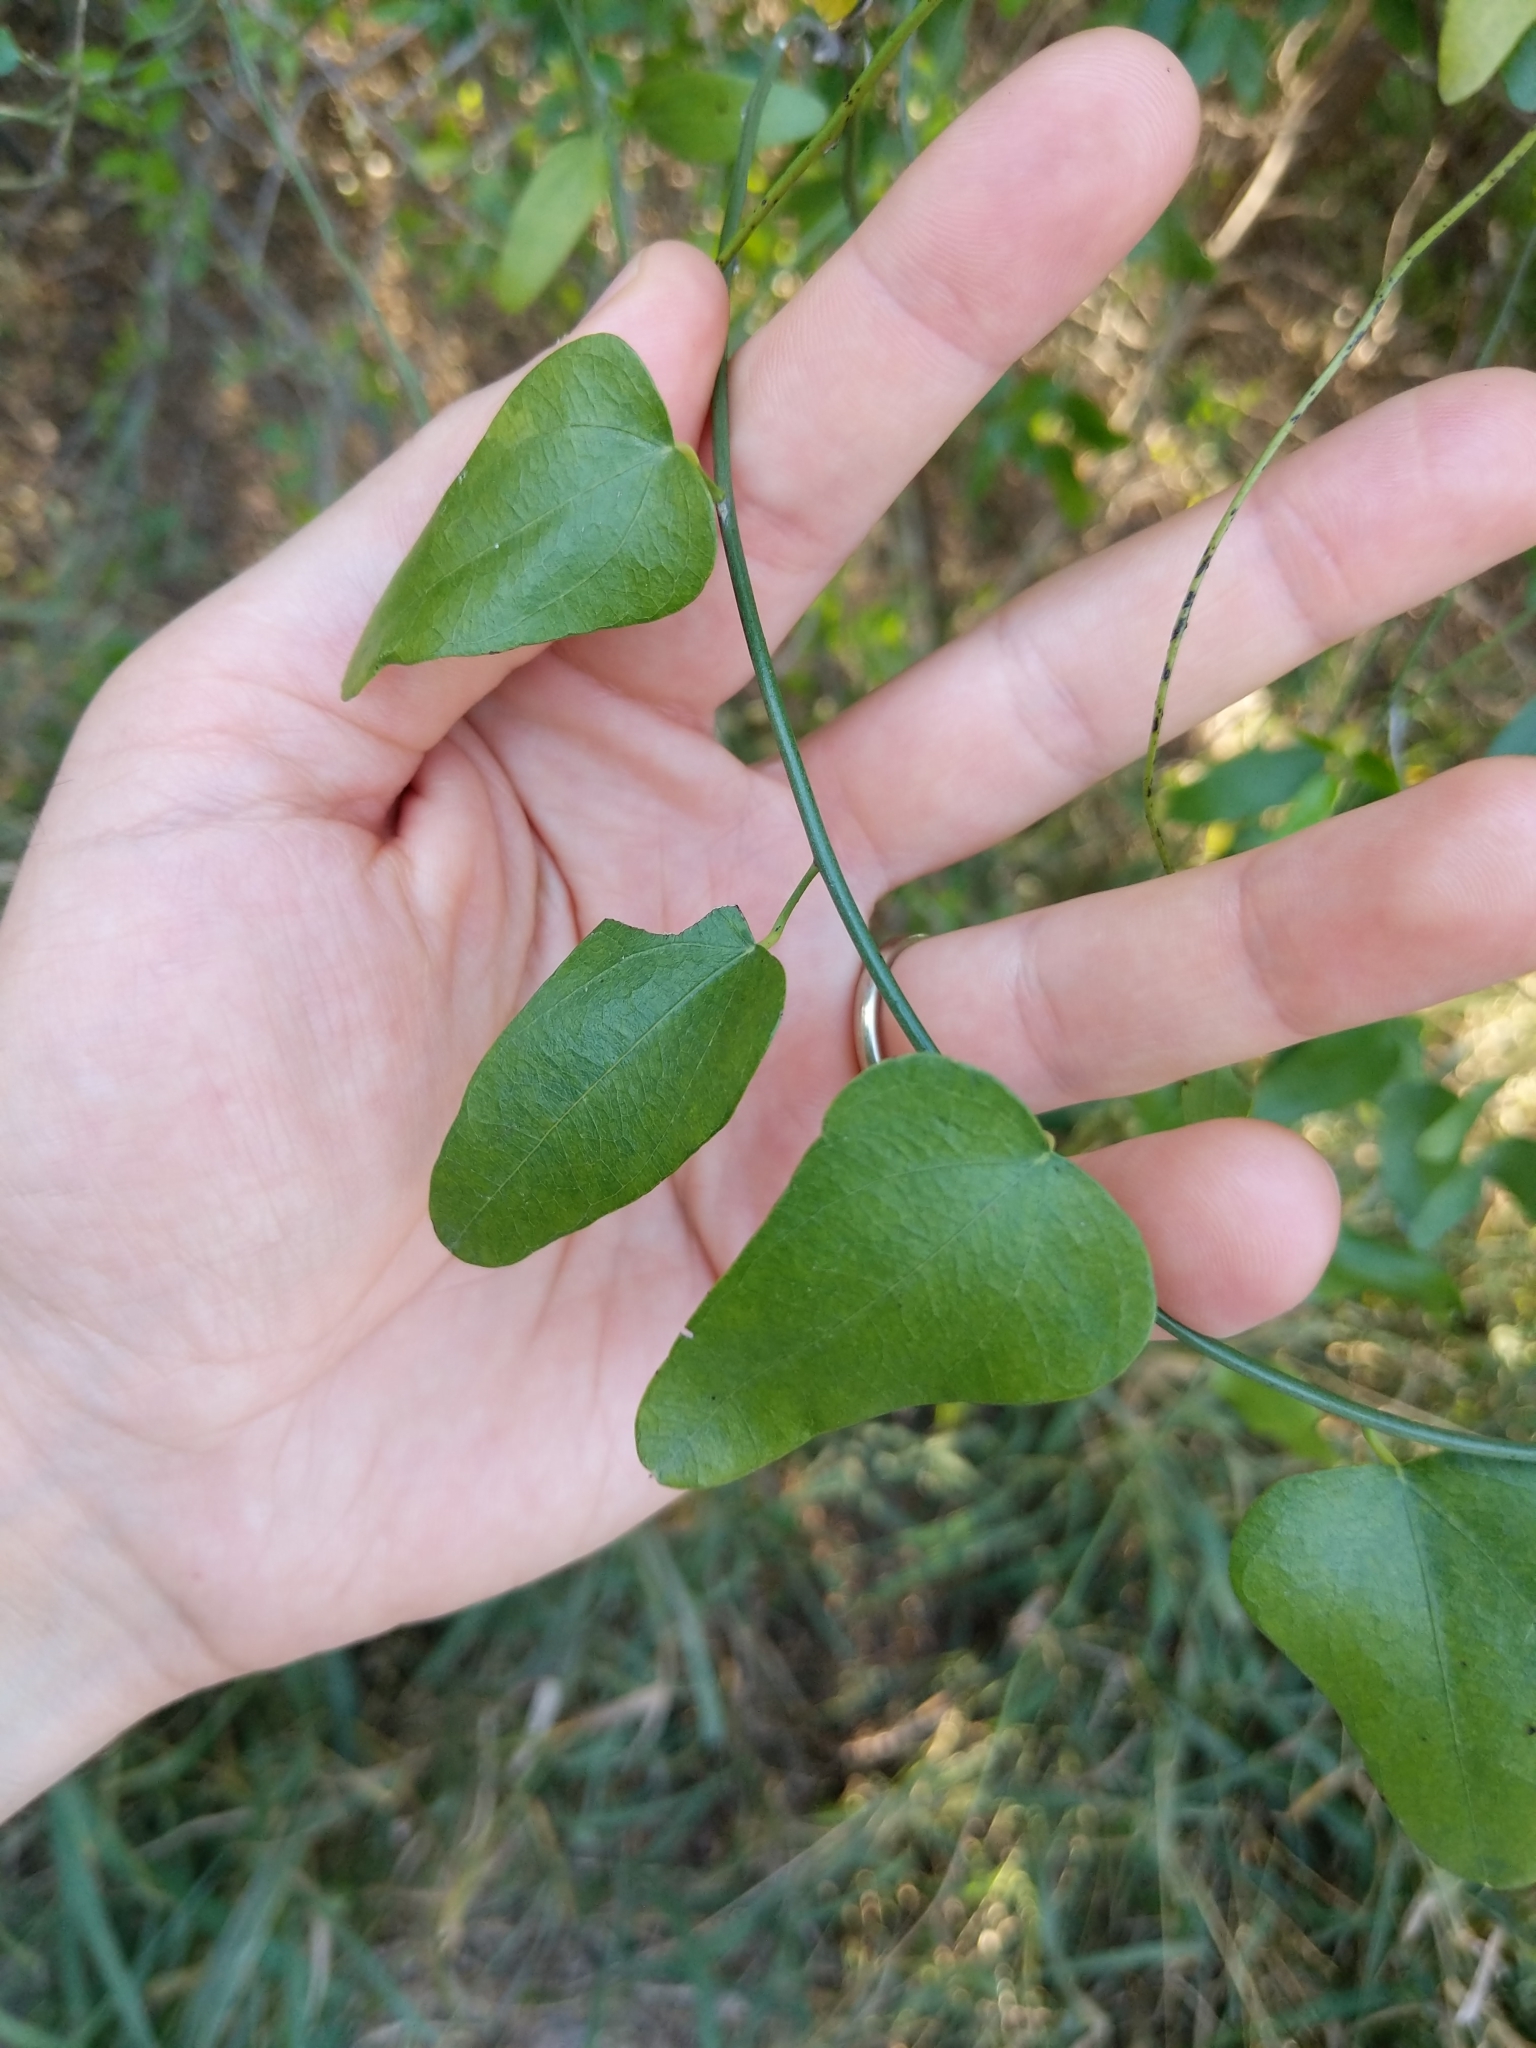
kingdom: Plantae
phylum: Tracheophyta
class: Magnoliopsida
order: Ranunculales
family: Menispermaceae
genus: Cocculus
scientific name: Cocculus diversifolius
